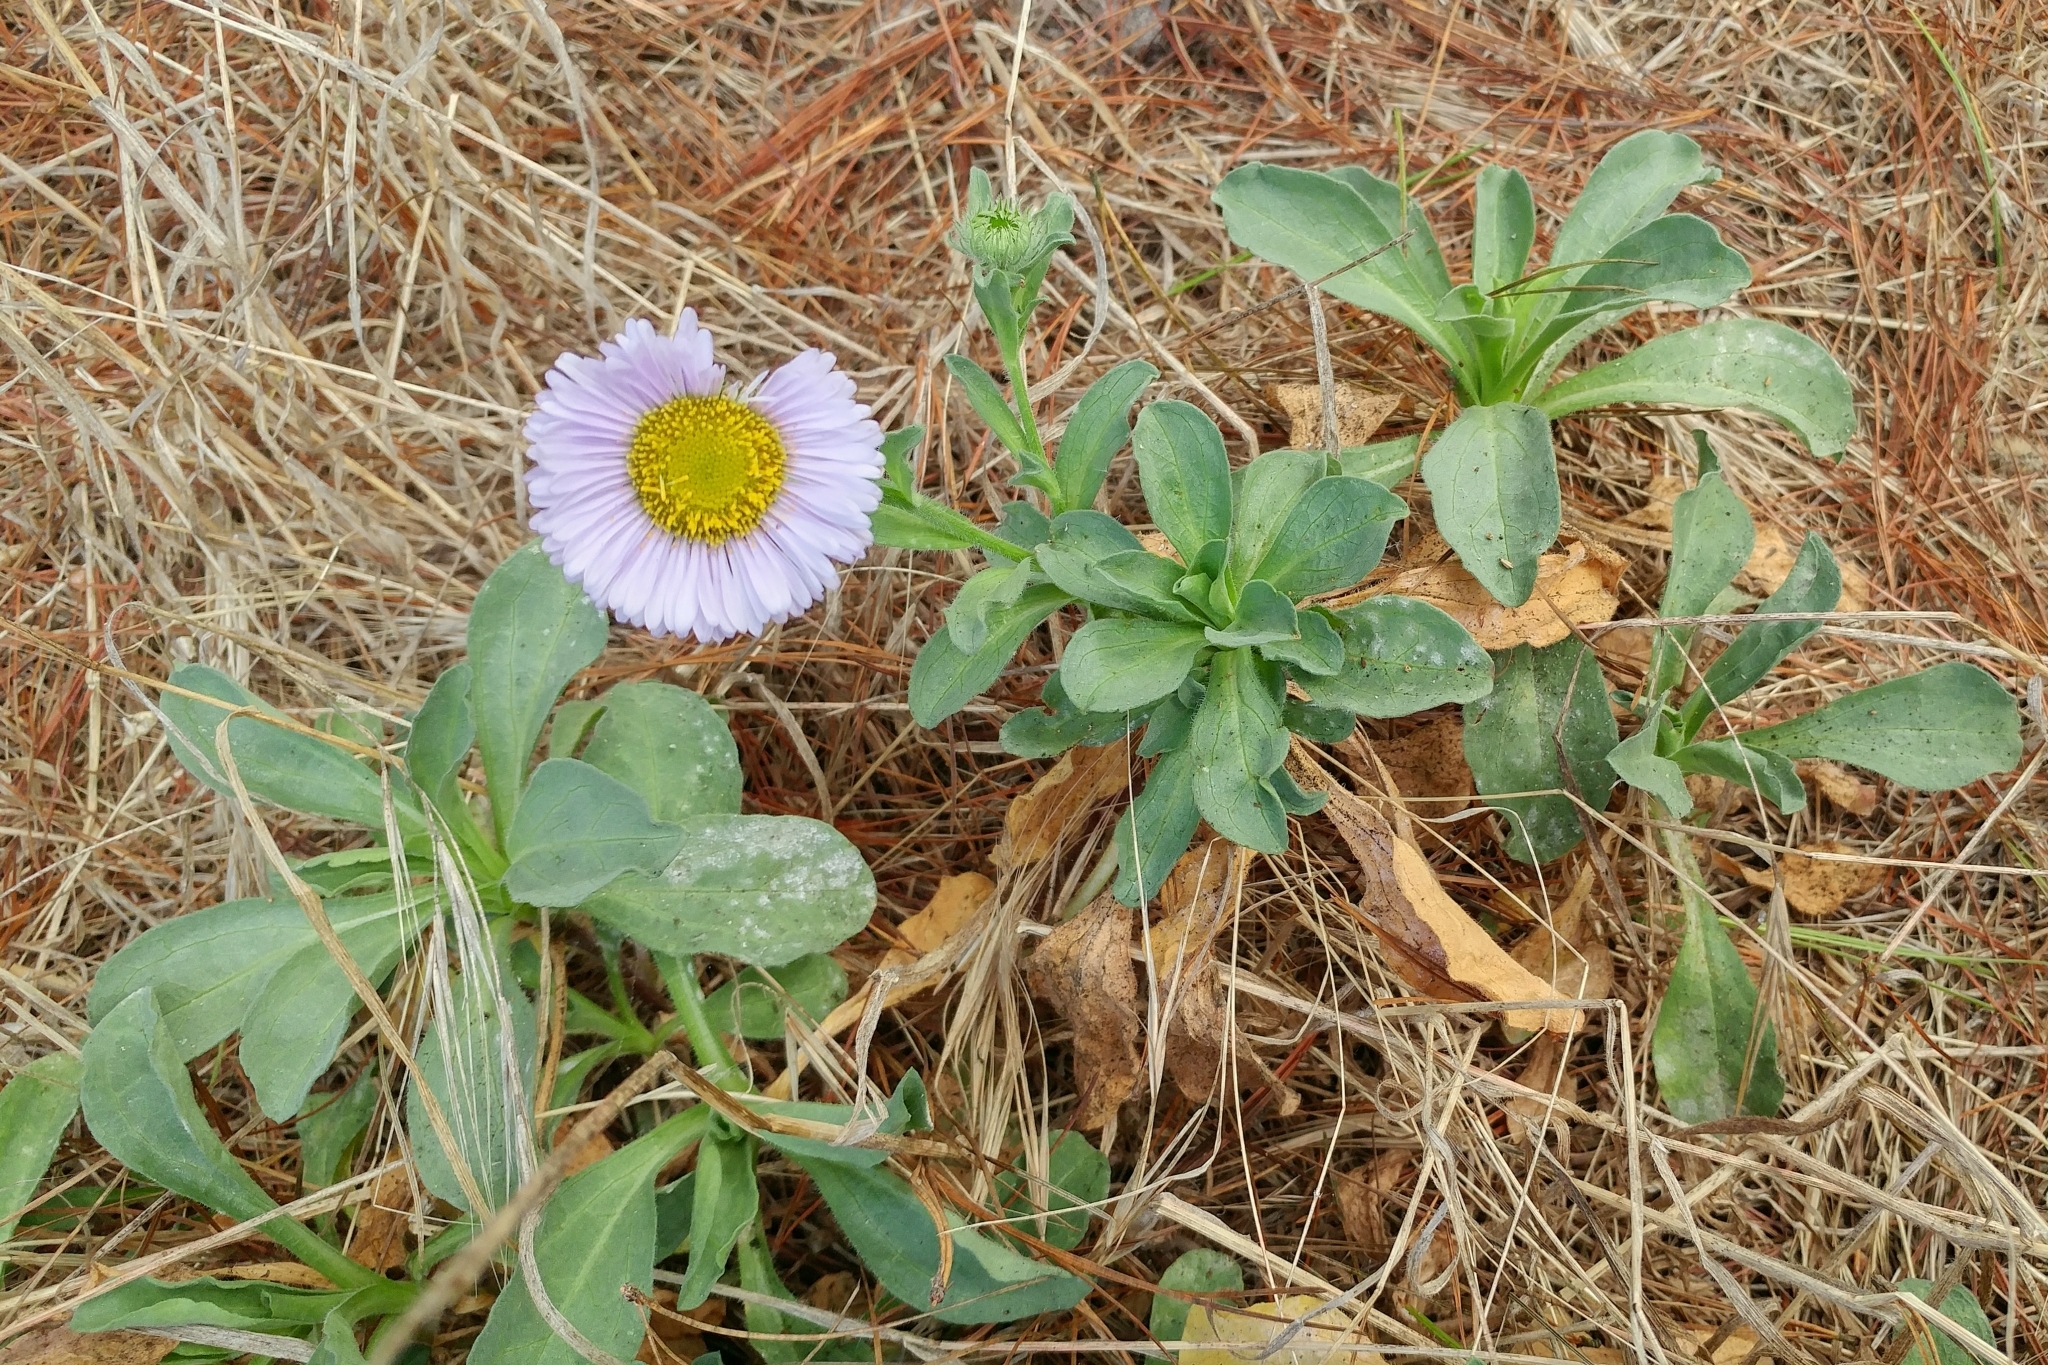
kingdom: Plantae
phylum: Tracheophyta
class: Magnoliopsida
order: Asterales
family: Asteraceae
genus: Erigeron
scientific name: Erigeron glaucus
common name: Seaside daisy
